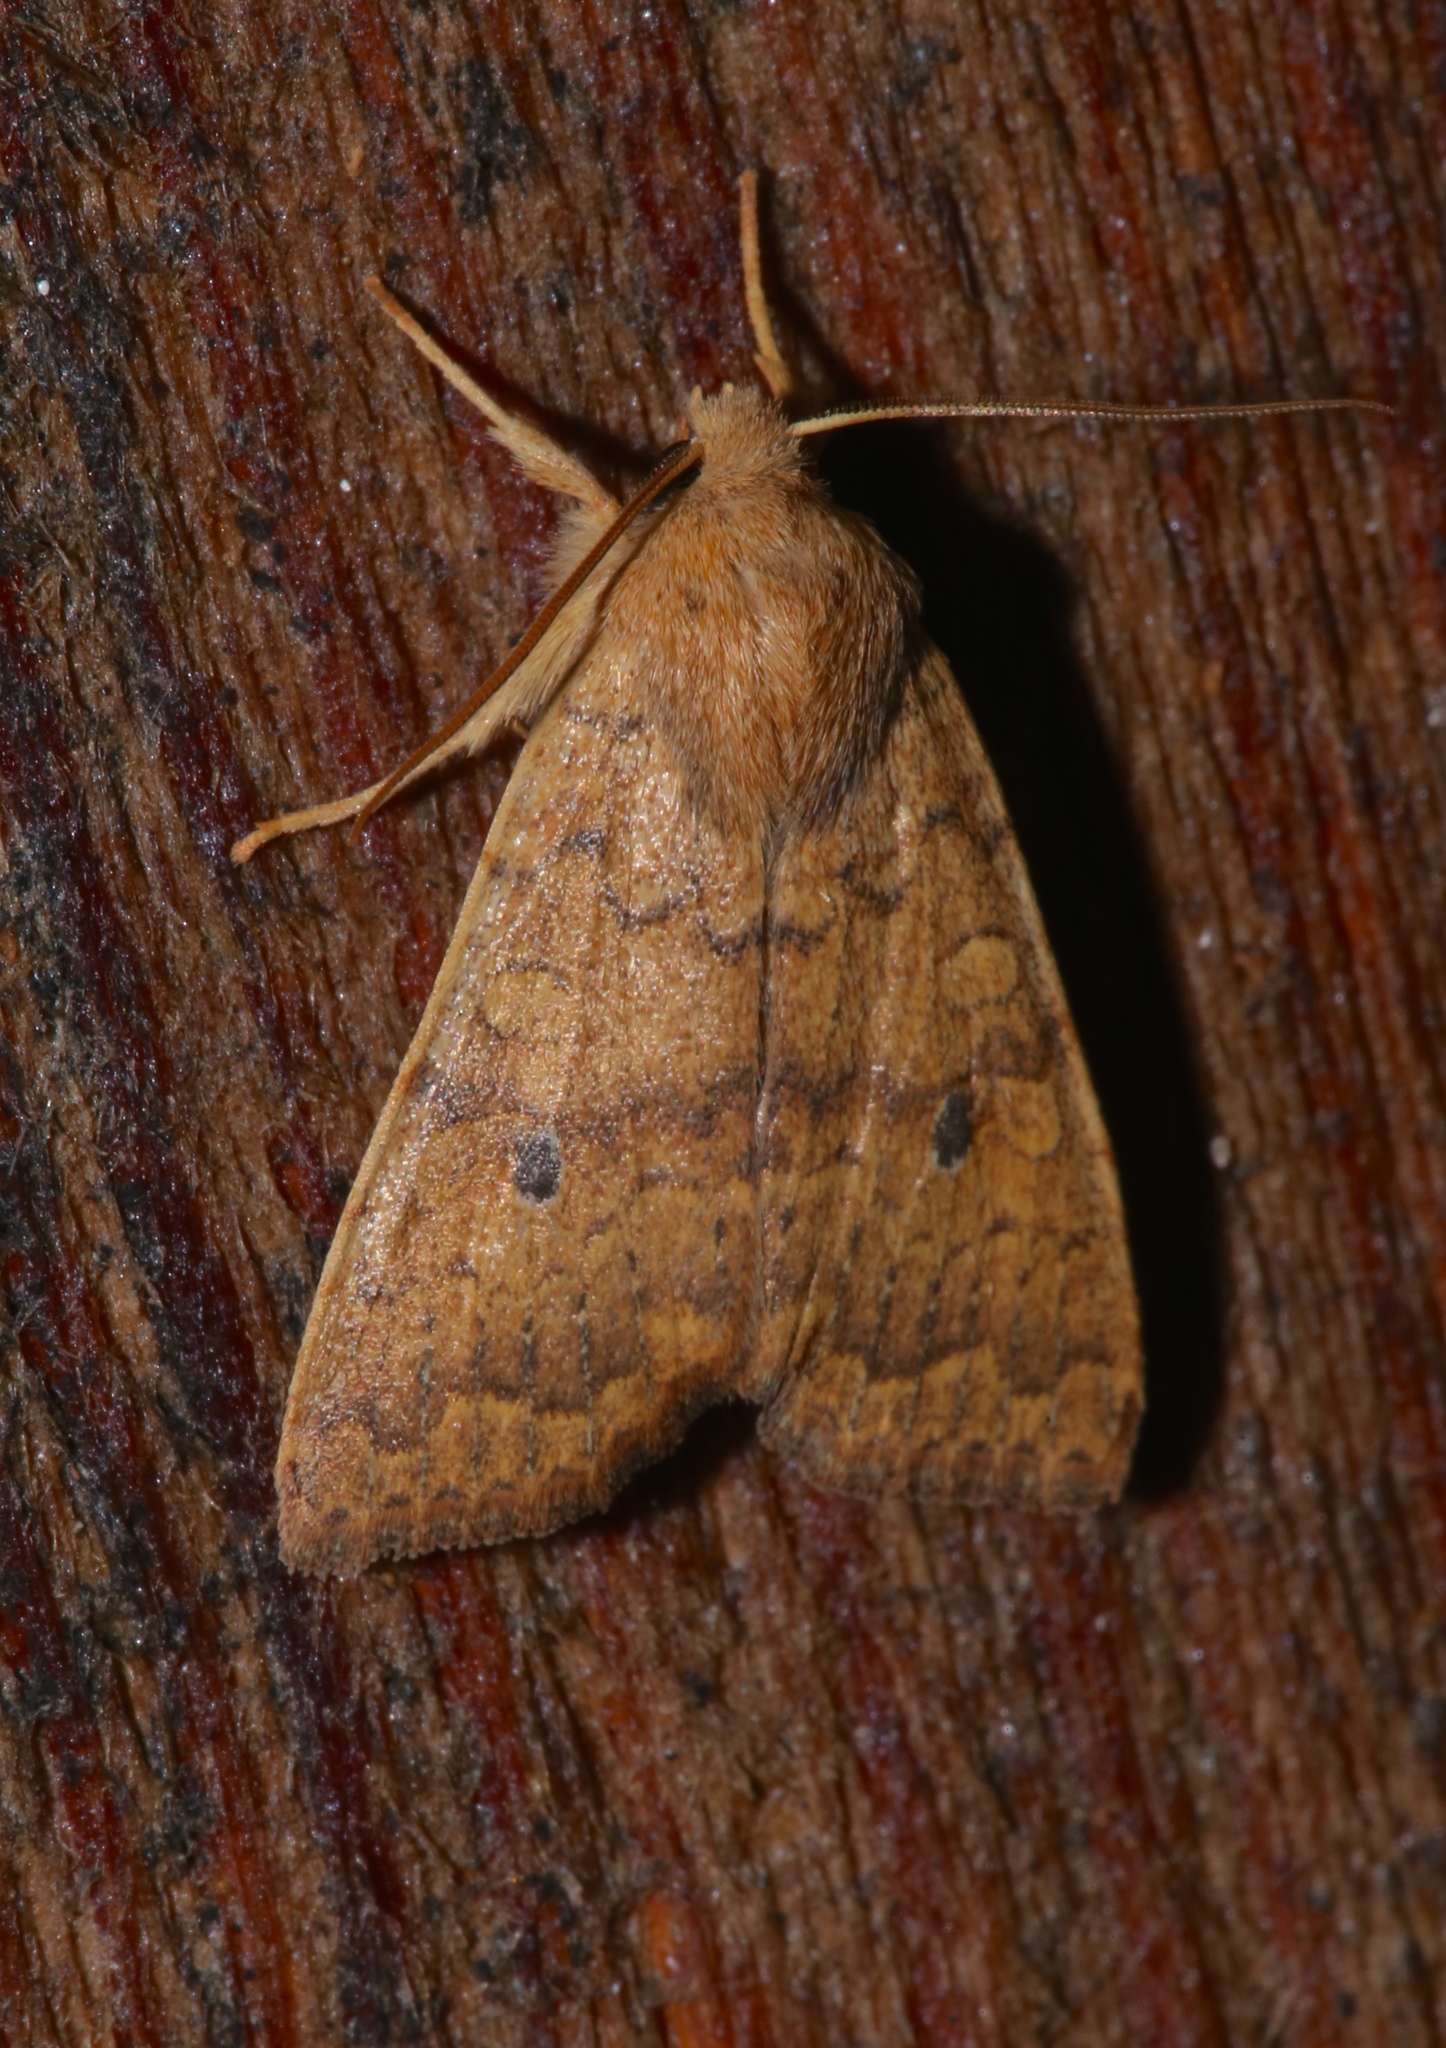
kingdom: Animalia
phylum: Arthropoda
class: Insecta
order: Lepidoptera
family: Noctuidae
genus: Agrochola
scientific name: Agrochola bicolorago
